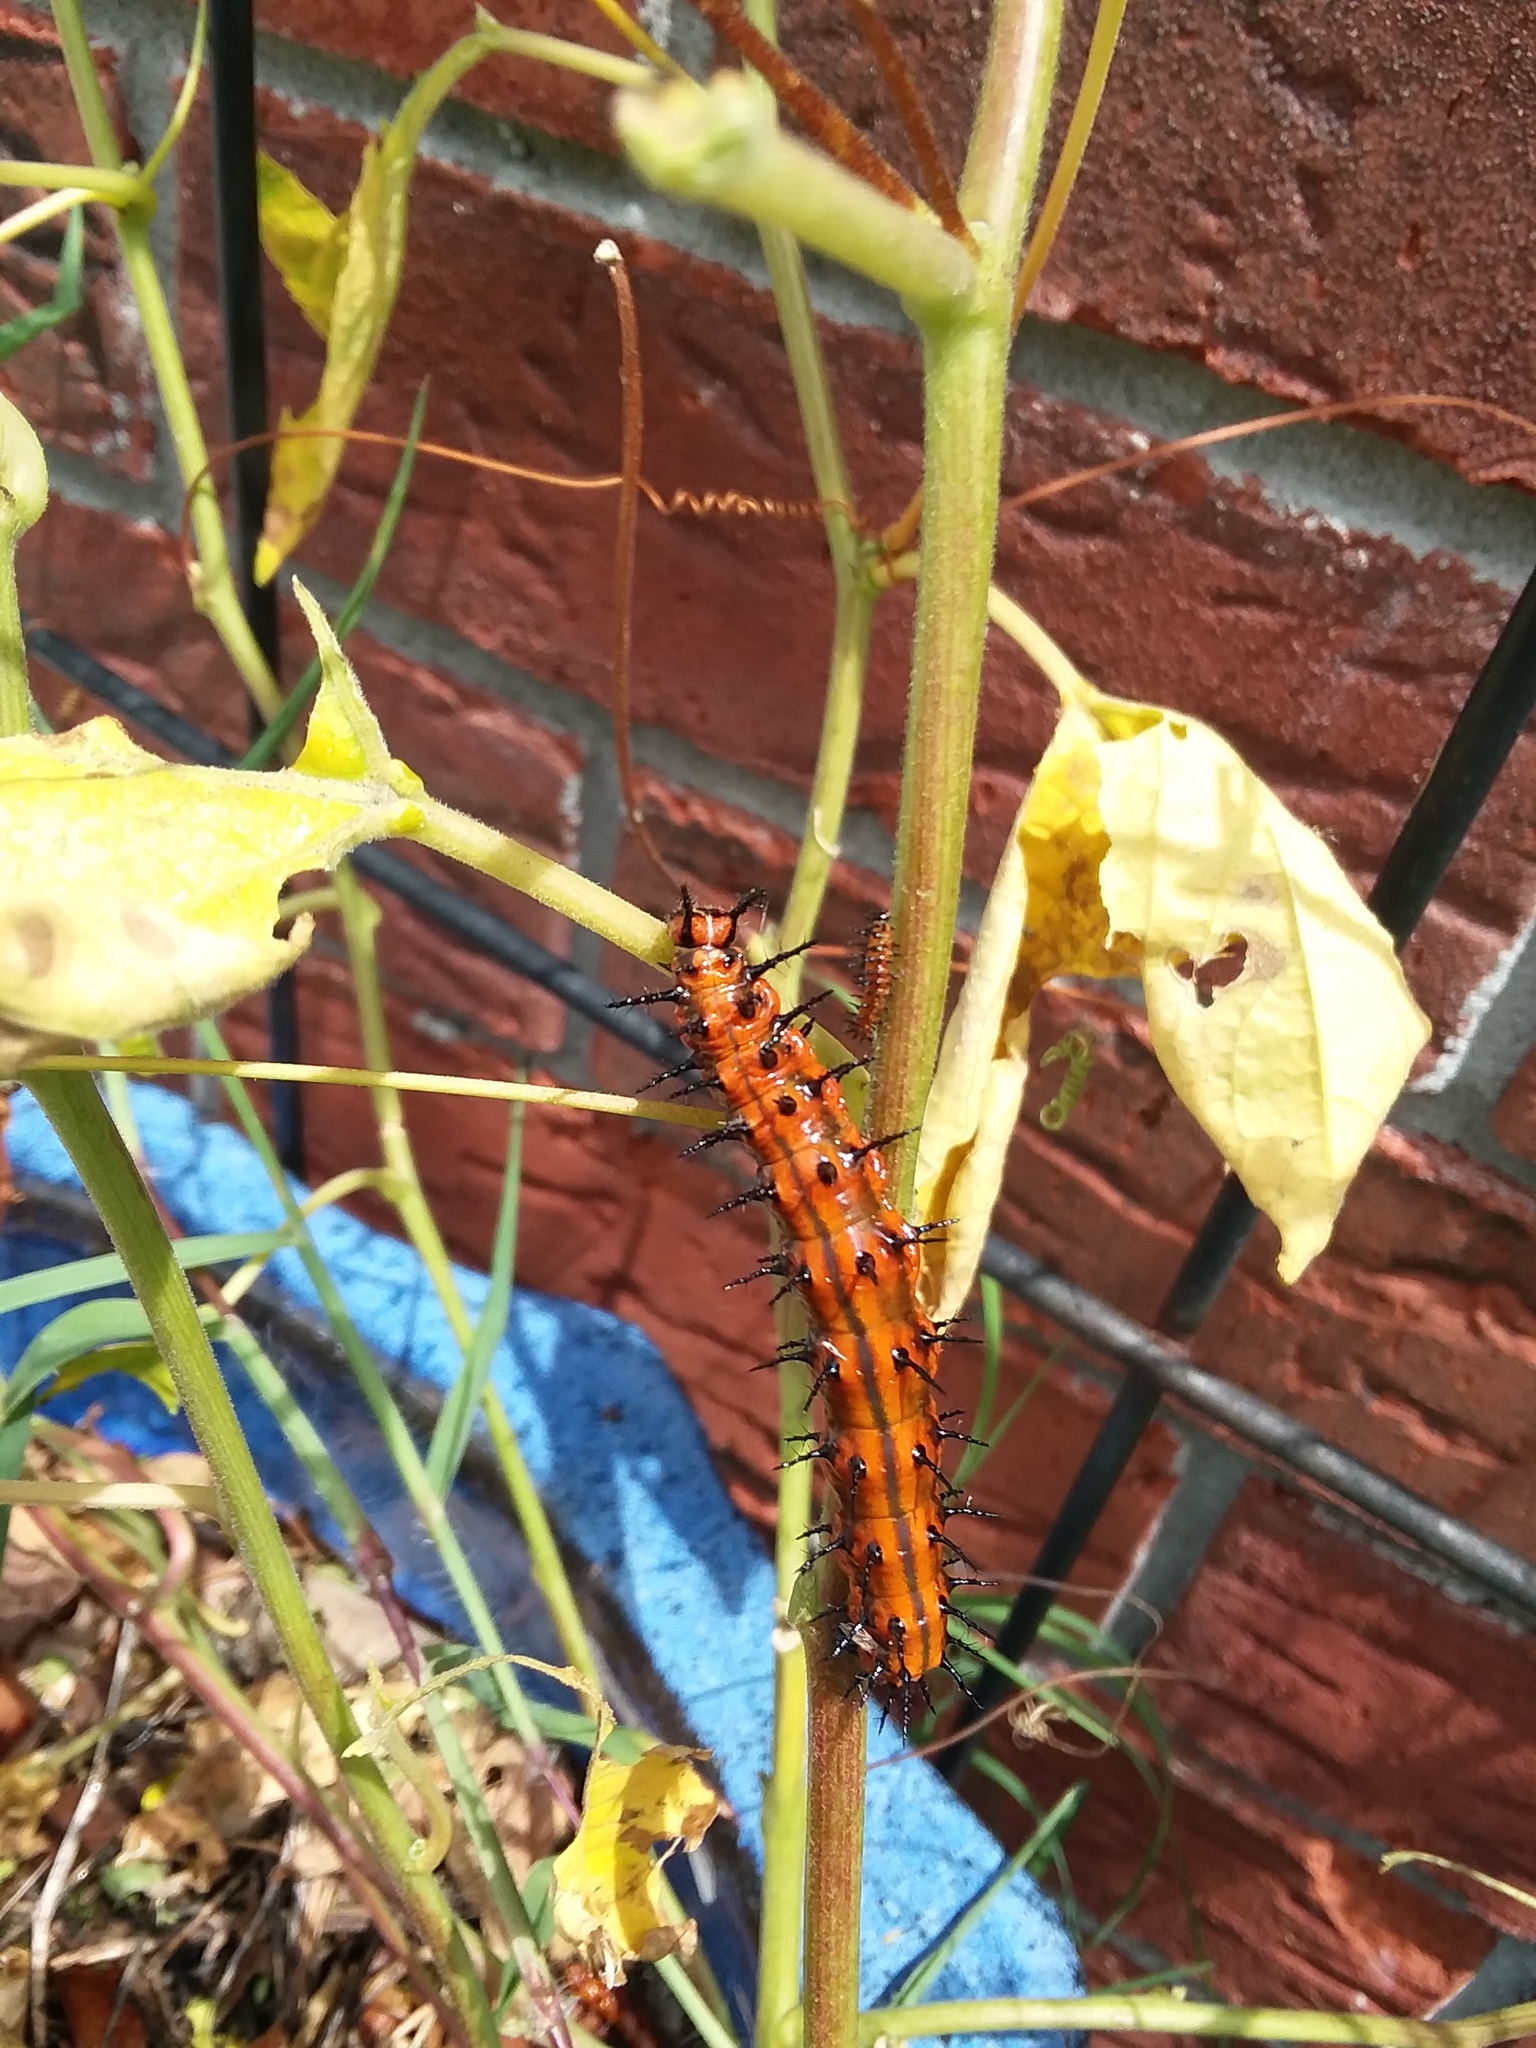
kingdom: Animalia
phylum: Arthropoda
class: Insecta
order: Lepidoptera
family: Nymphalidae
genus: Dione
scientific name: Dione vanillae
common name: Gulf fritillary
